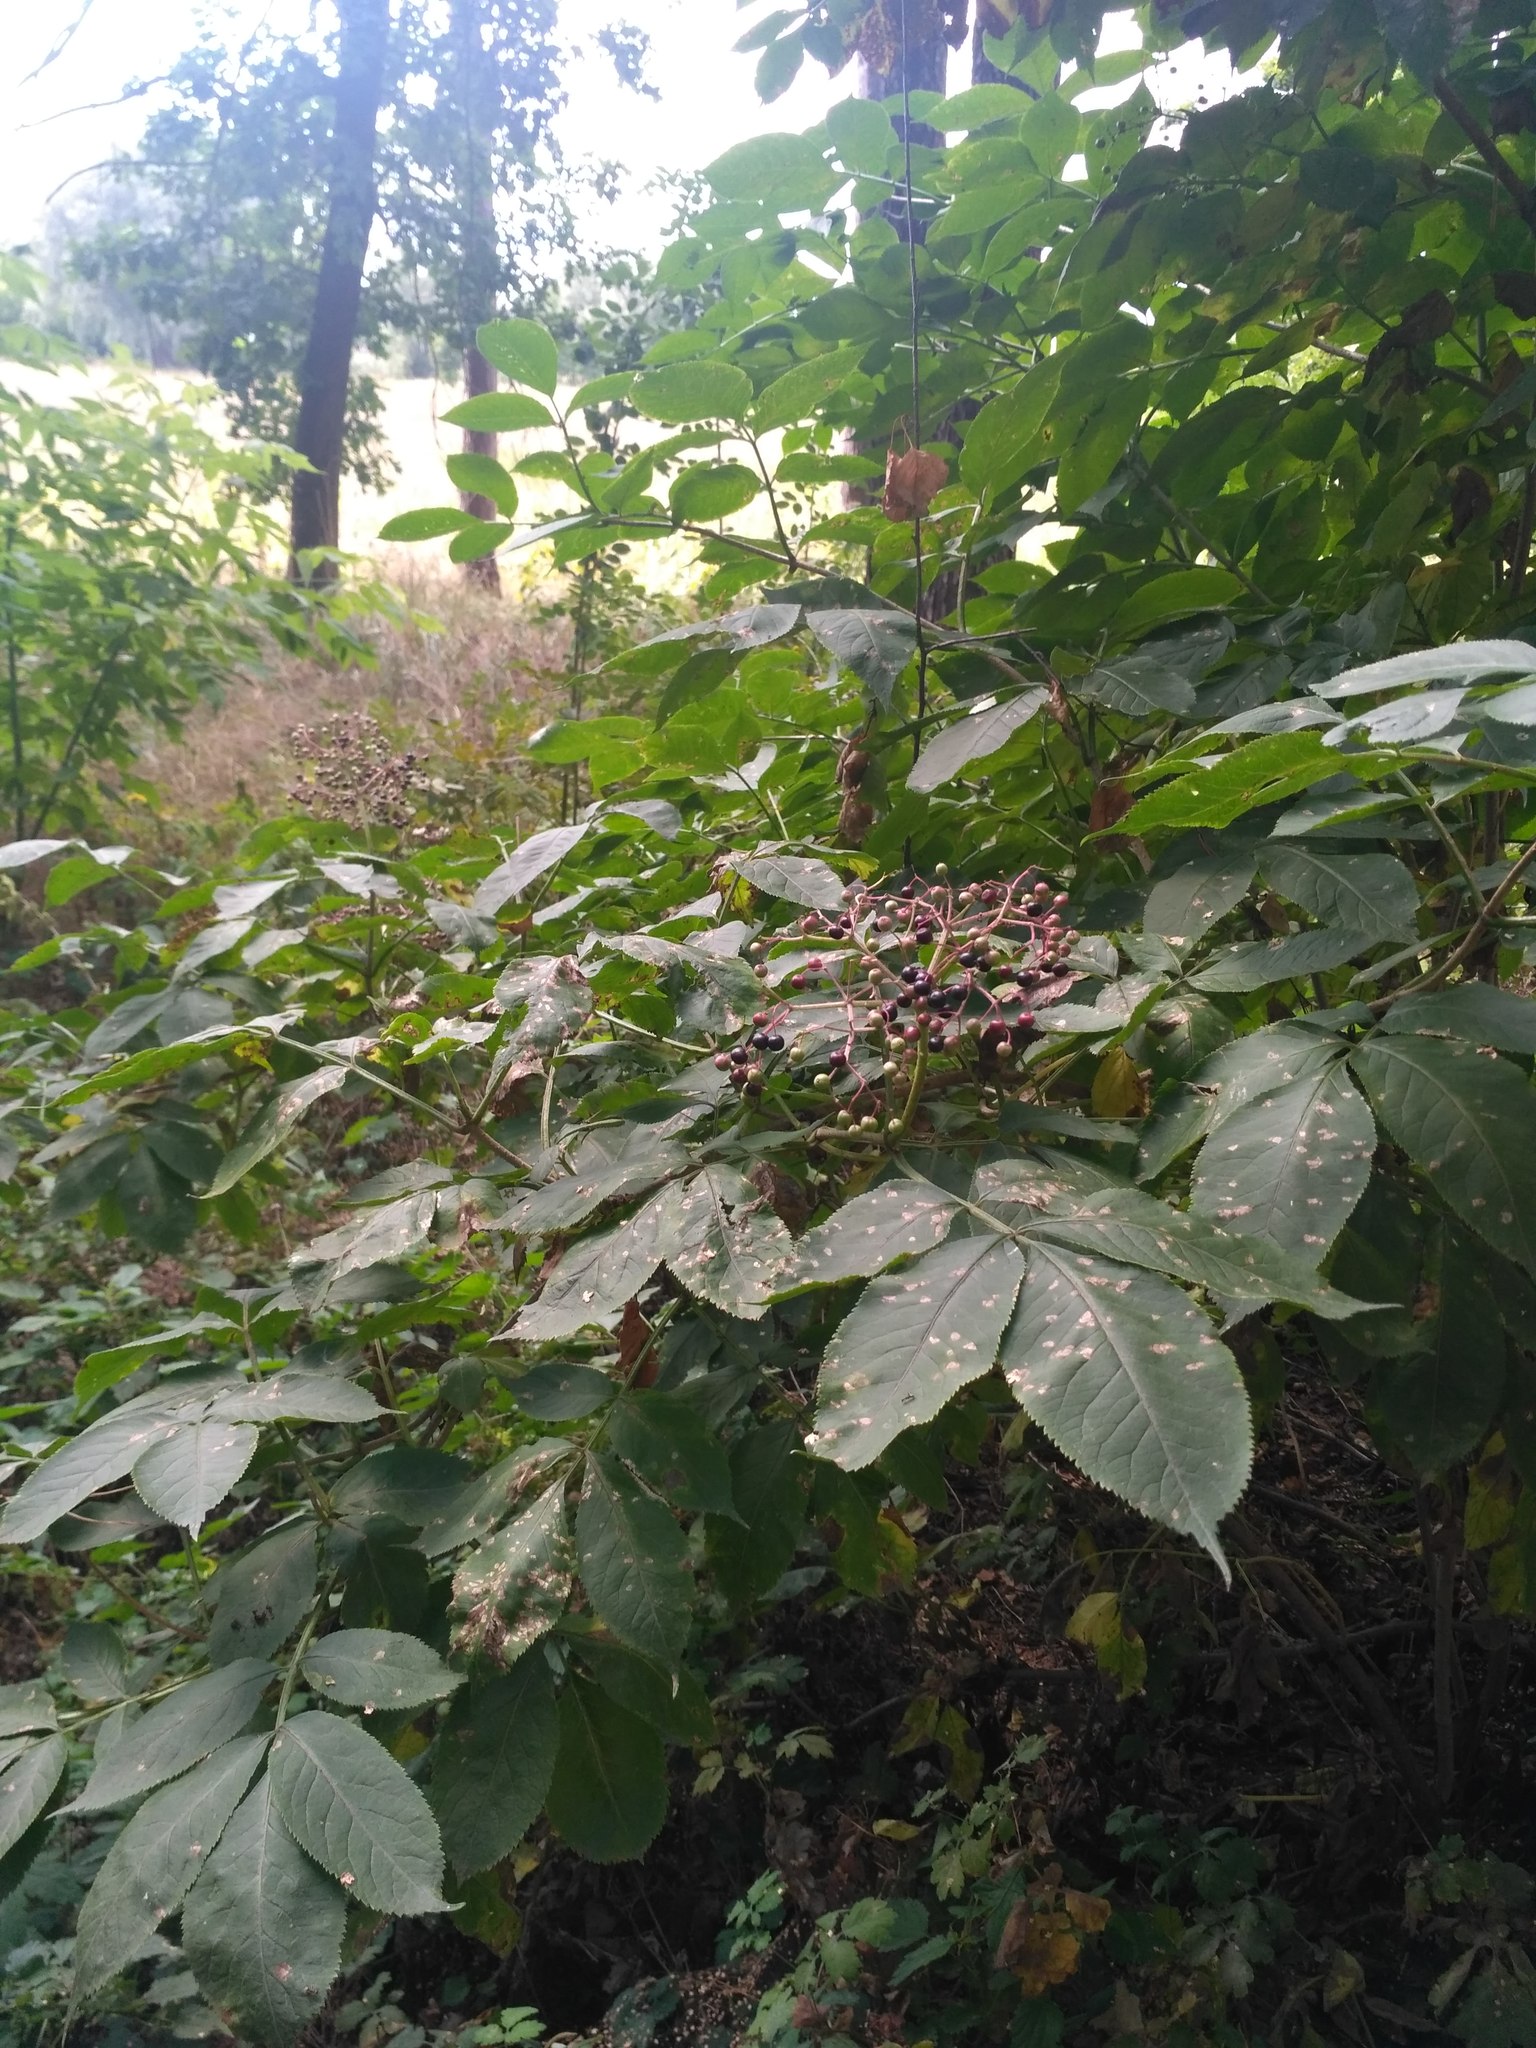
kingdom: Plantae
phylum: Tracheophyta
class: Magnoliopsida
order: Dipsacales
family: Viburnaceae
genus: Sambucus
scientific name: Sambucus nigra
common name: Elder
